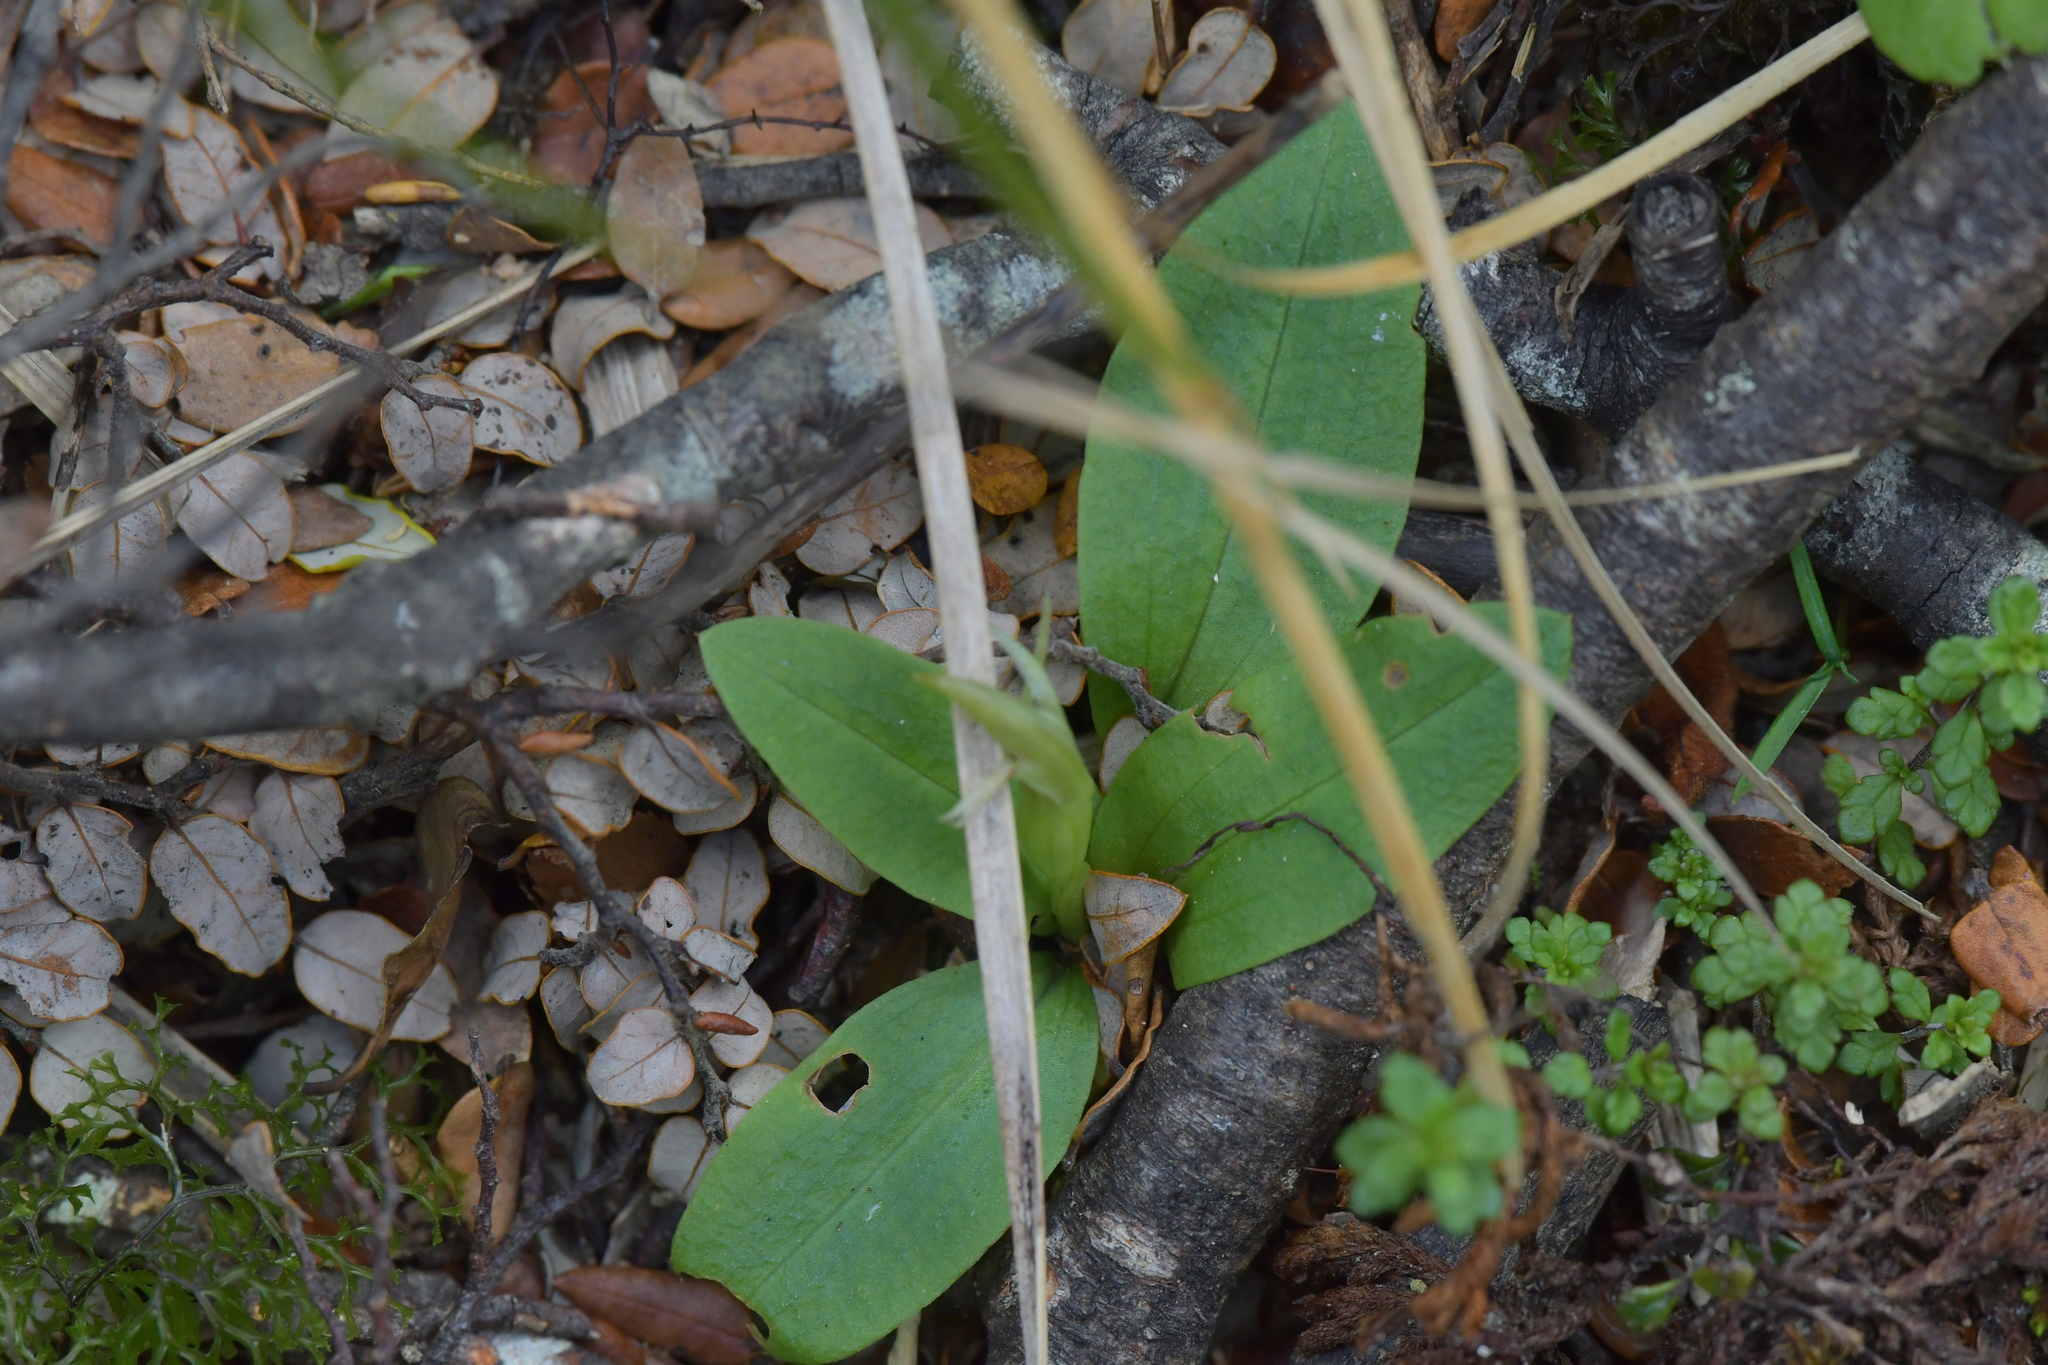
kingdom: Plantae
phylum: Tracheophyta
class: Liliopsida
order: Asparagales
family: Orchidaceae
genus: Chiloglottis
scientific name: Chiloglottis cornuta
